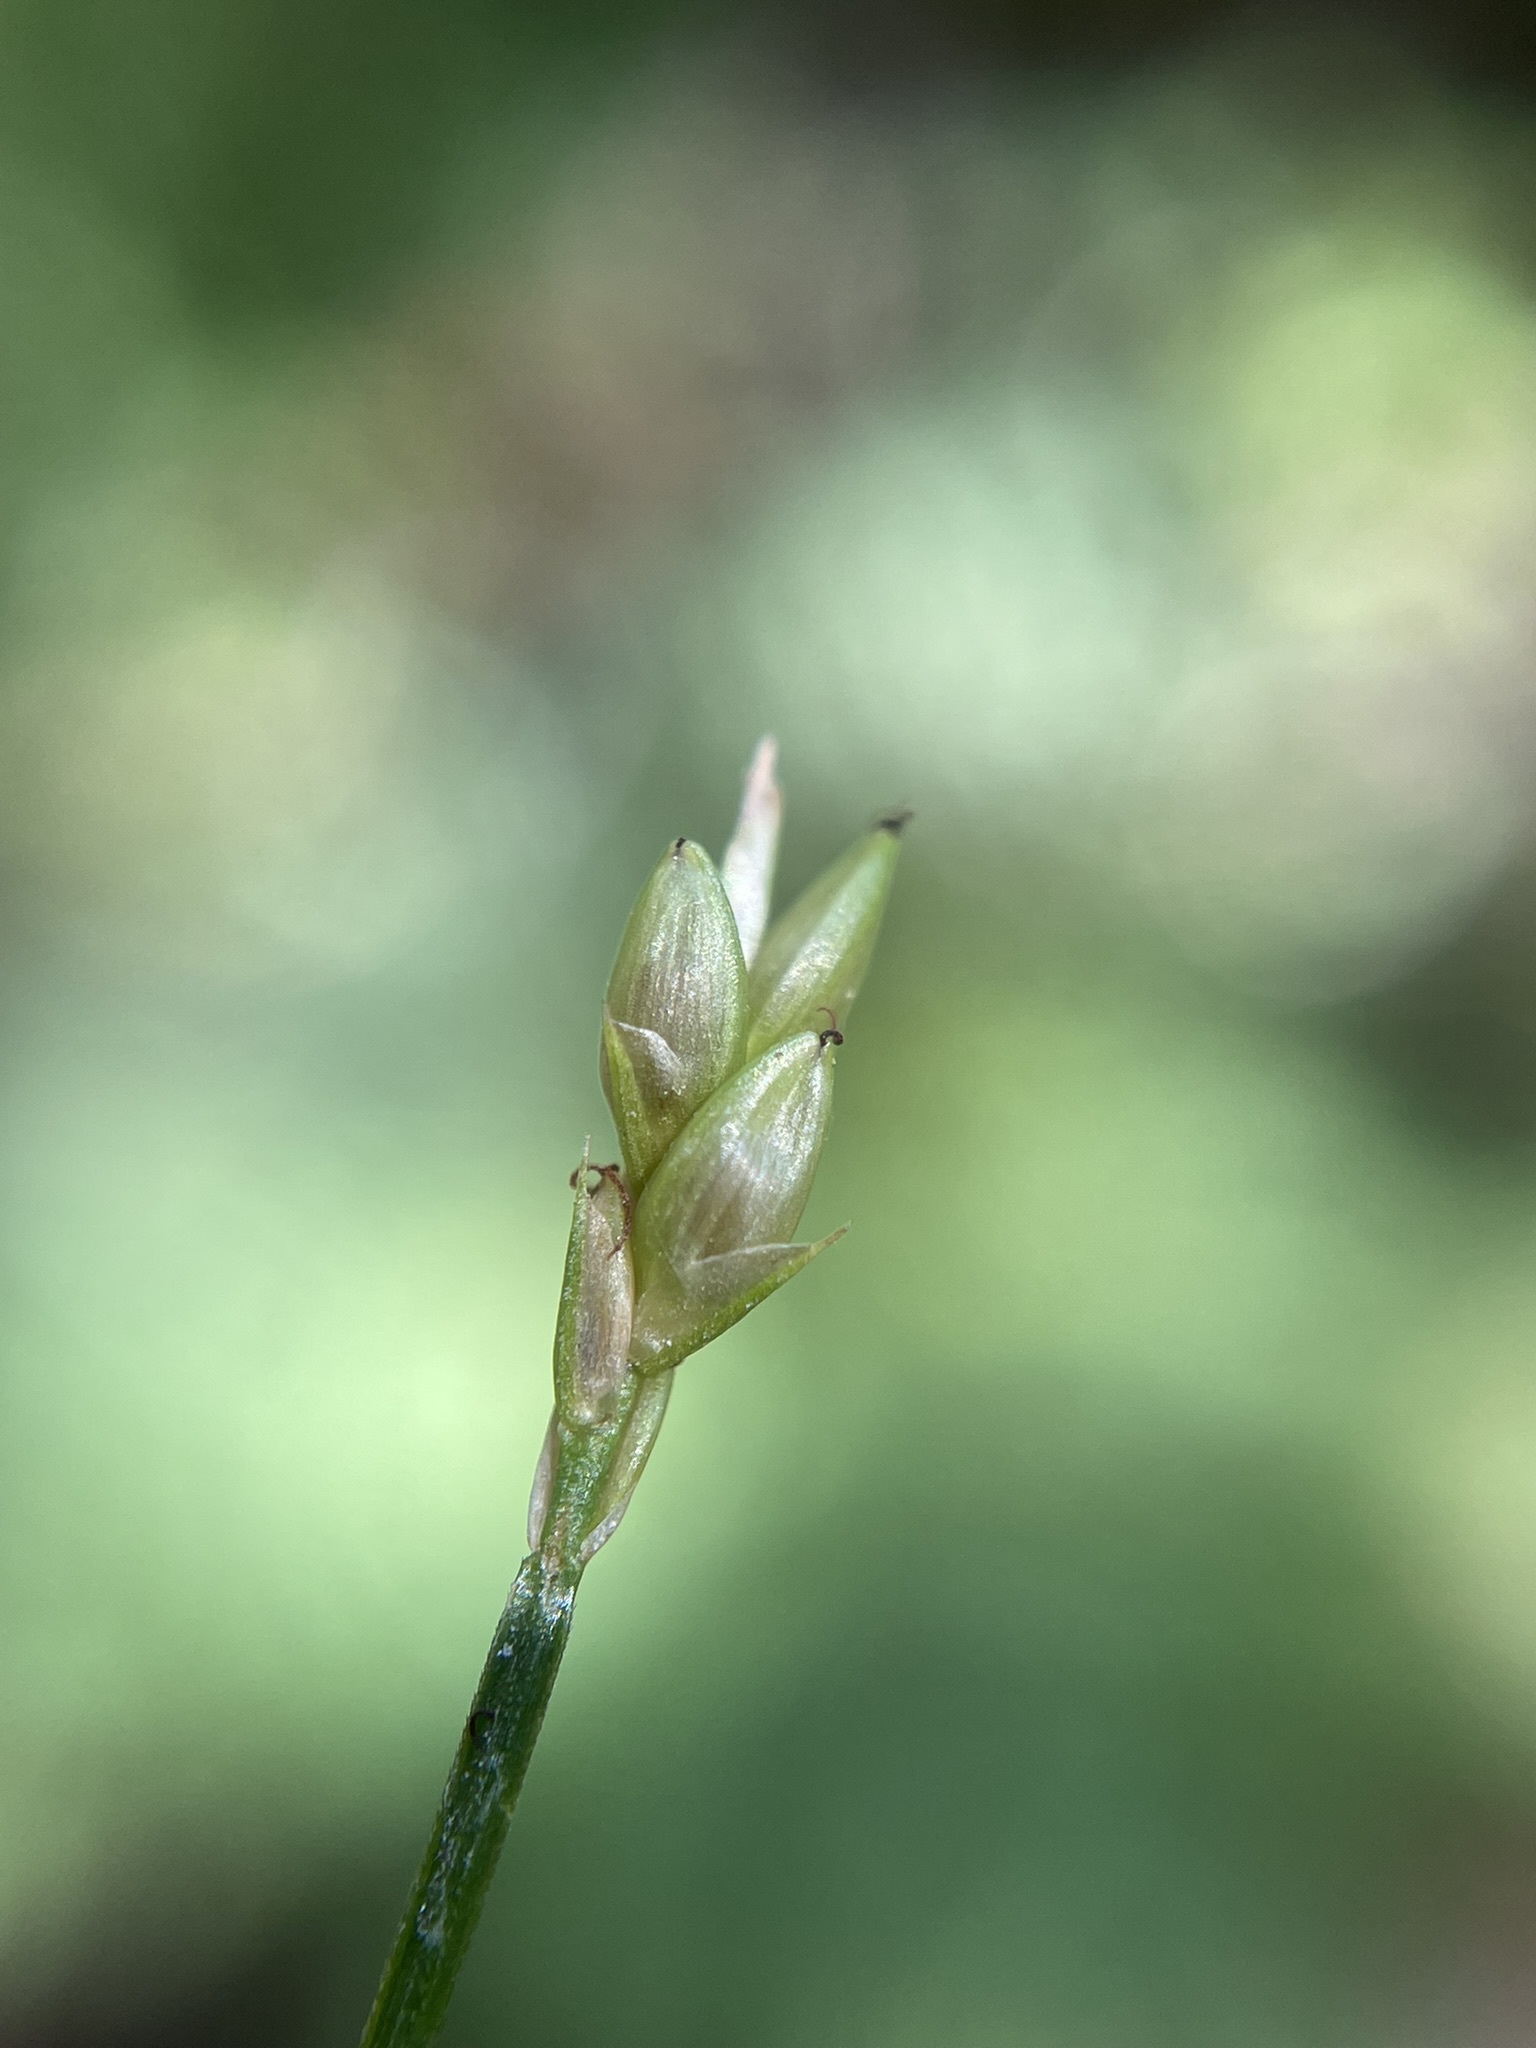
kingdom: Plantae
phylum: Tracheophyta
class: Liliopsida
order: Poales
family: Cyperaceae
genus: Carex
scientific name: Carex leptalea
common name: Bristly-stalked sedge
